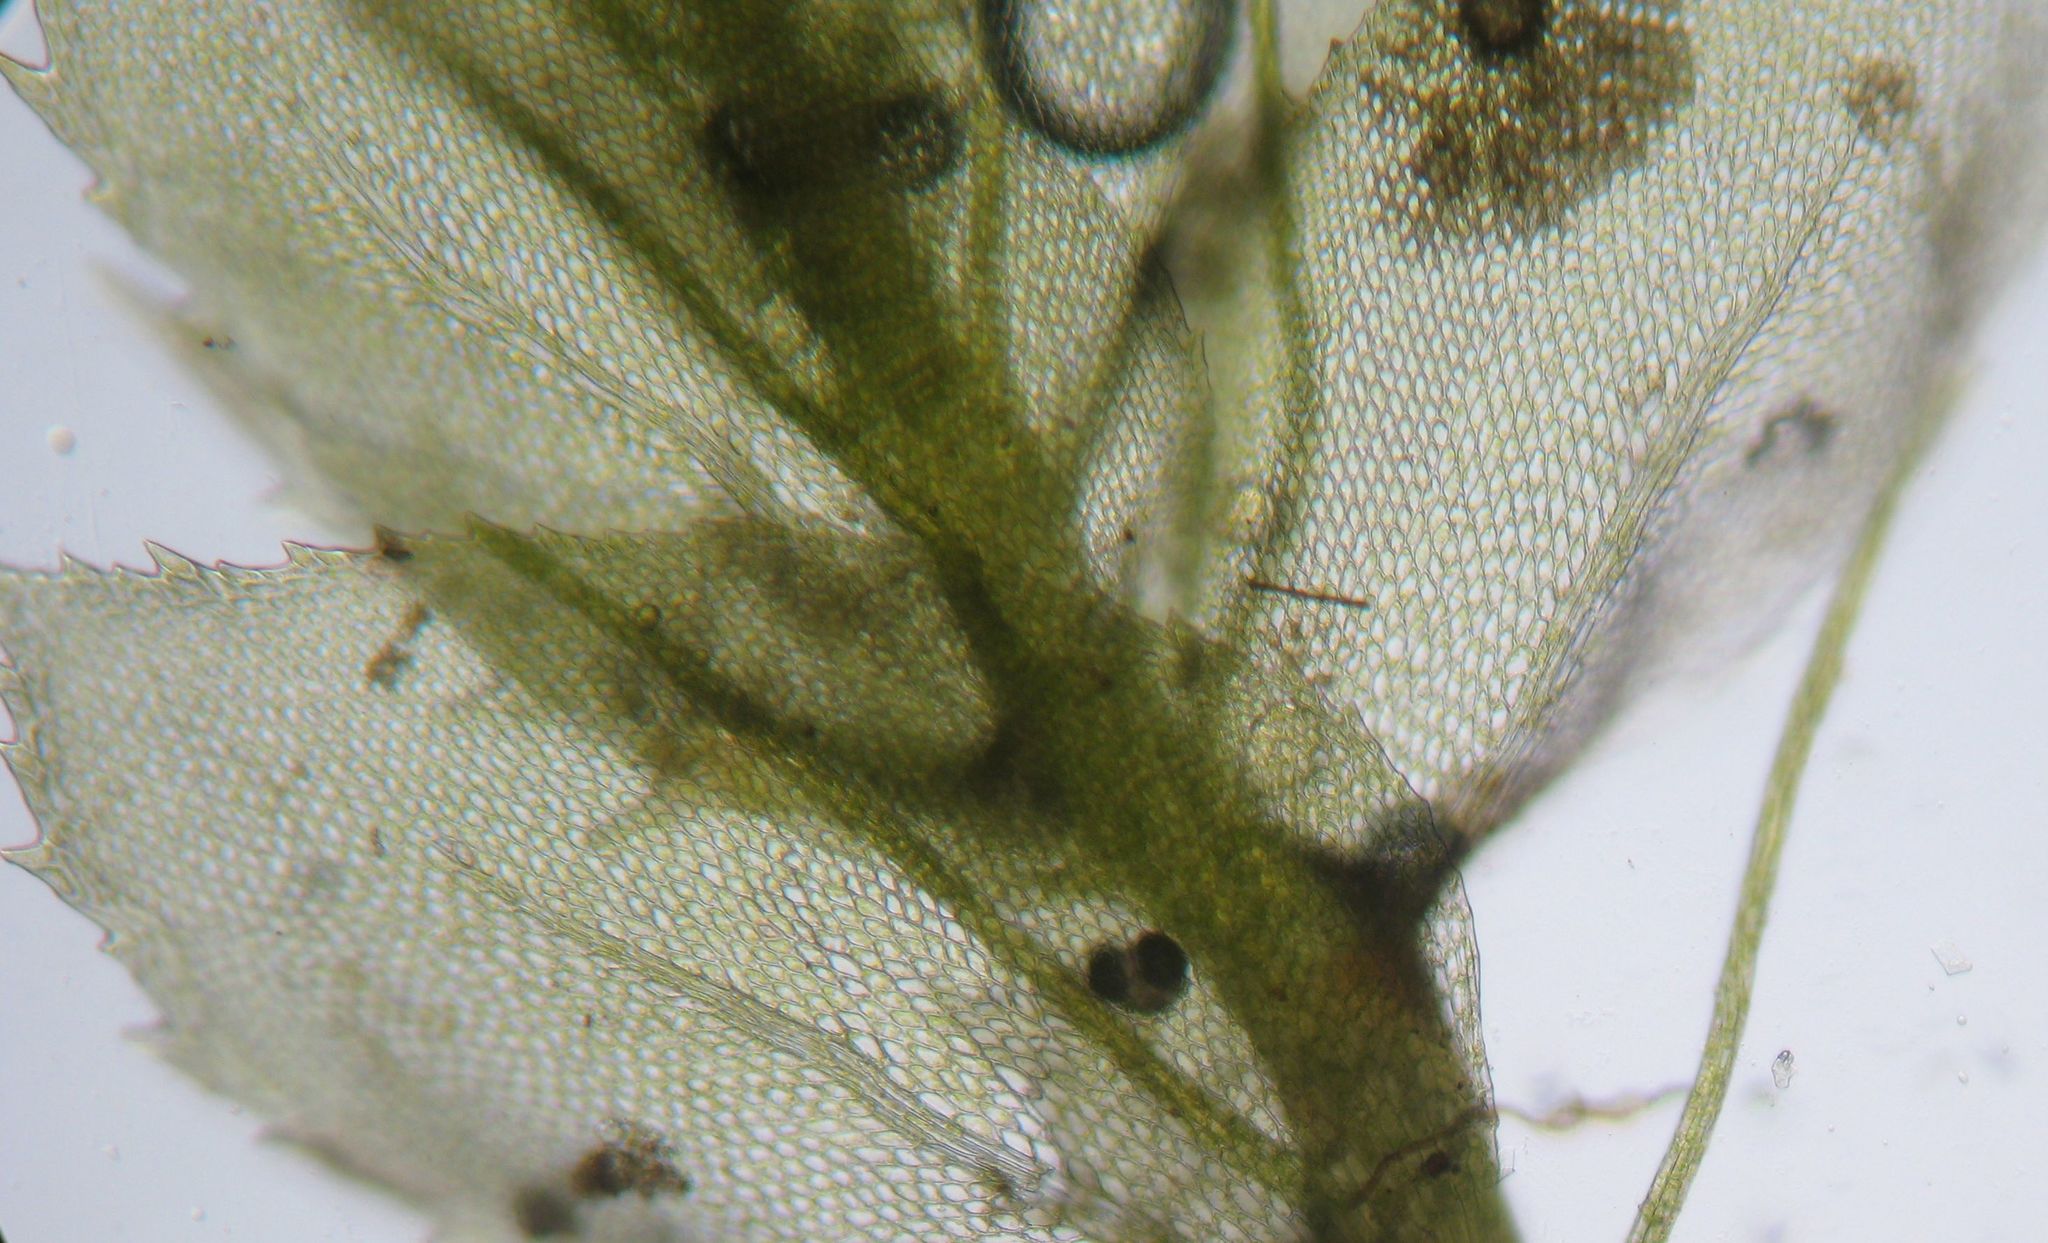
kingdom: Plantae
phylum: Bryophyta
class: Bryopsida
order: Hypopterygiales
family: Hypopterygiaceae
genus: Dendrohypopterygium
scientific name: Dendrohypopterygium filiculiforme
